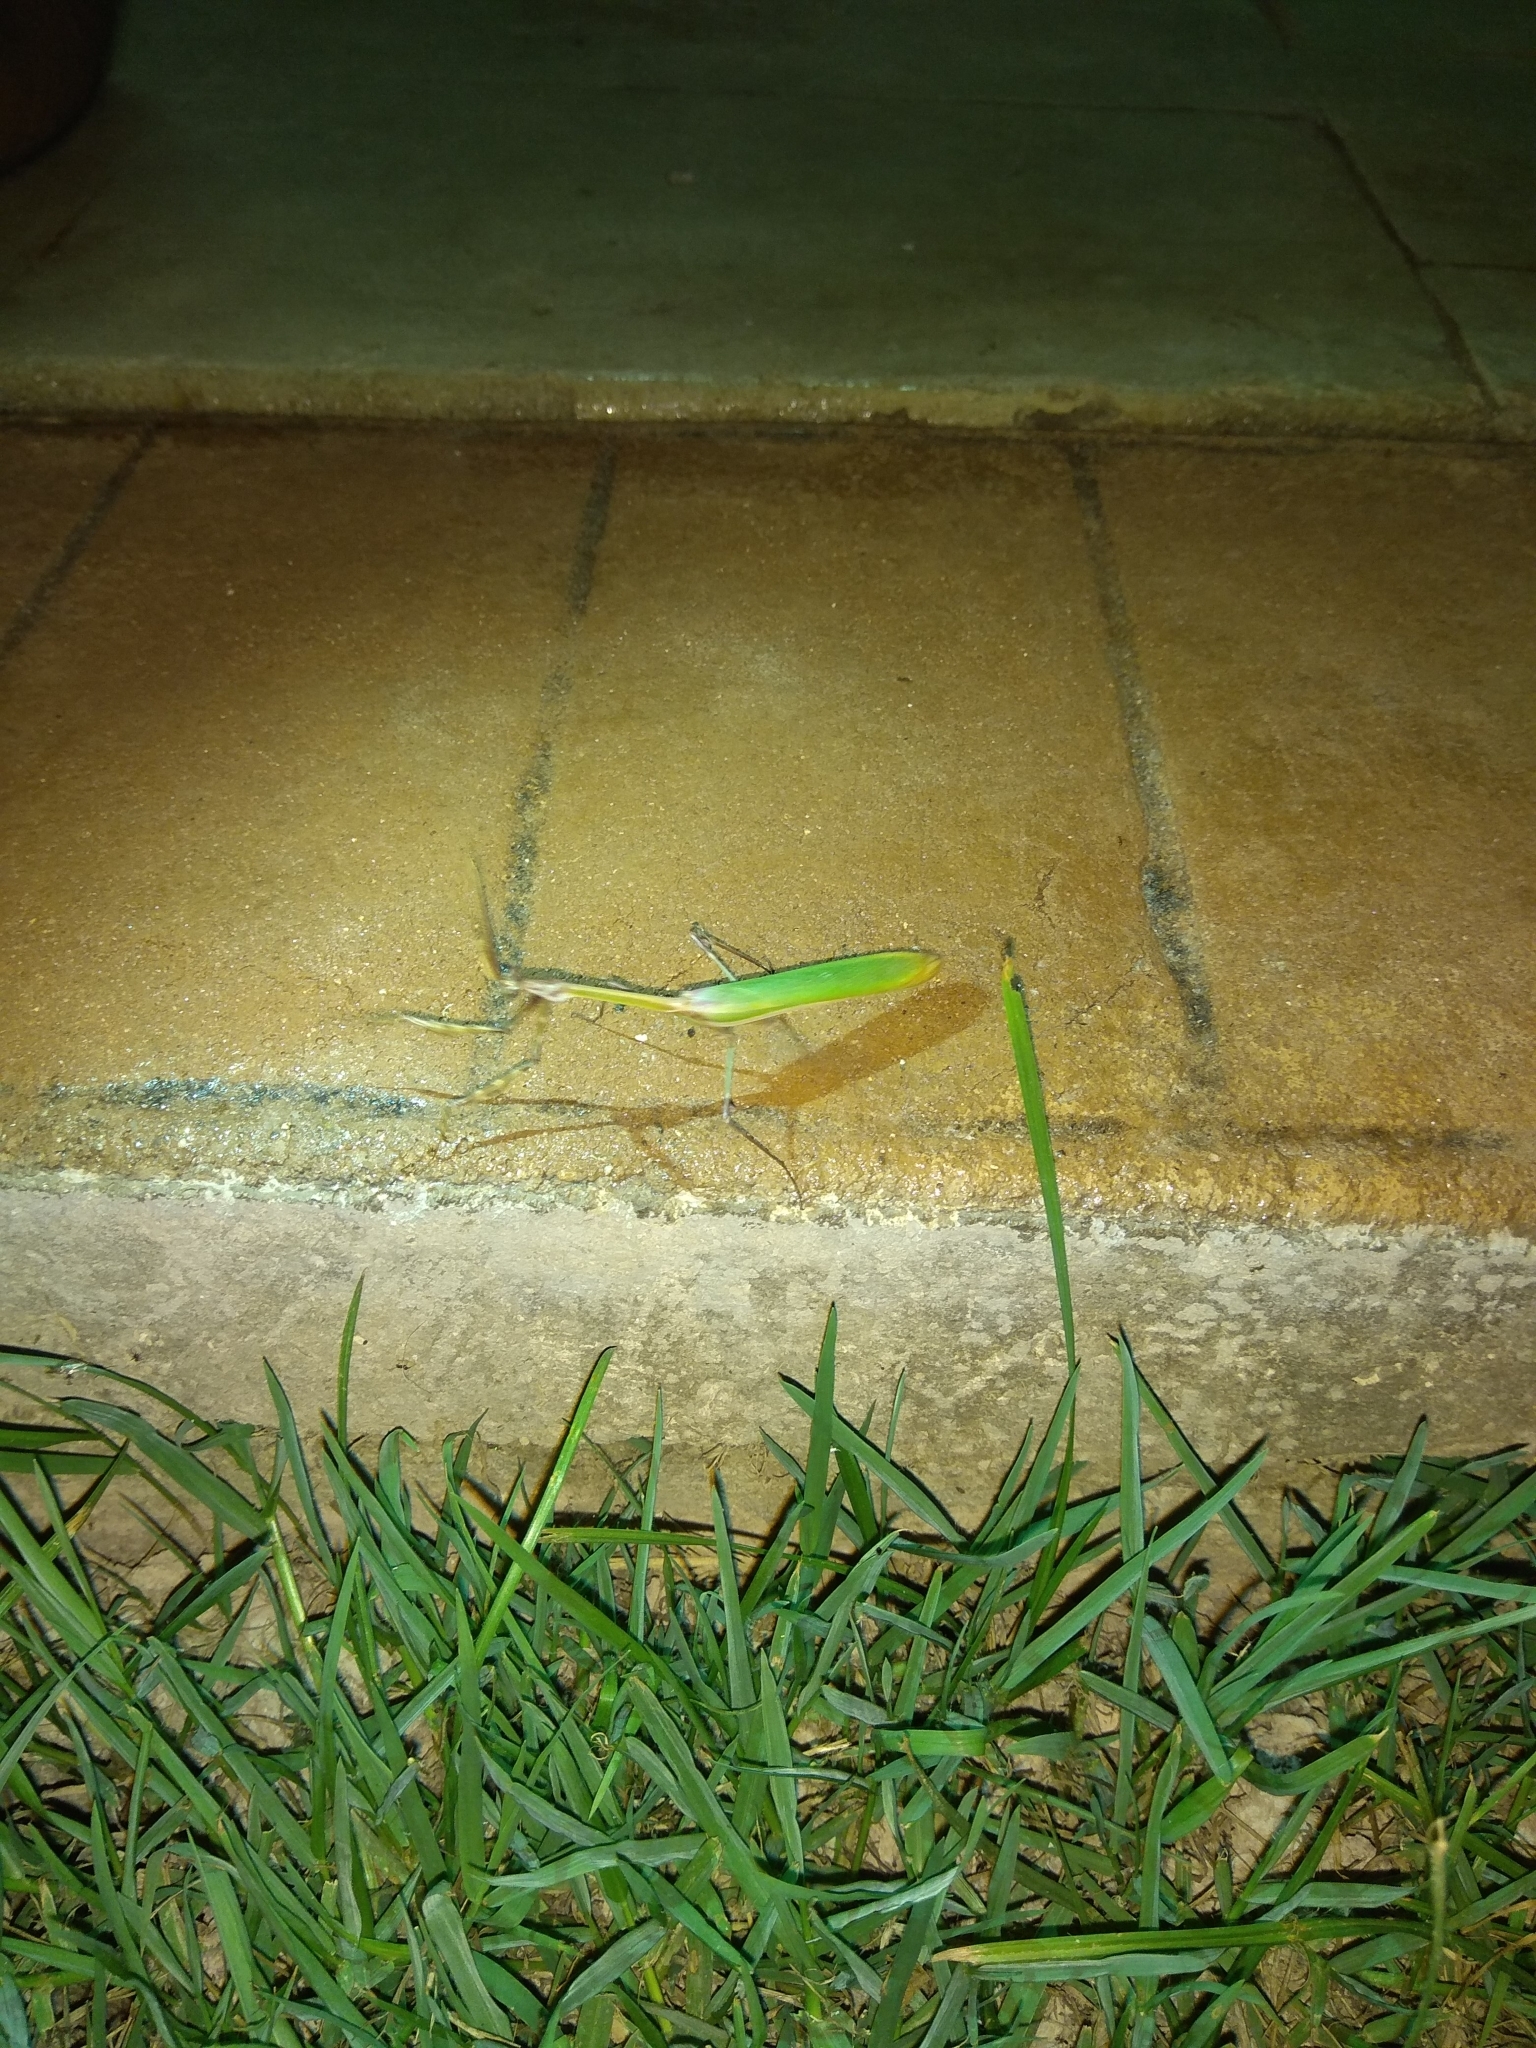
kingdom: Animalia
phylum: Arthropoda
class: Insecta
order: Mantodea
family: Empusidae
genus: Empusa
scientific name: Empusa fasciata
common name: Devil's mare
